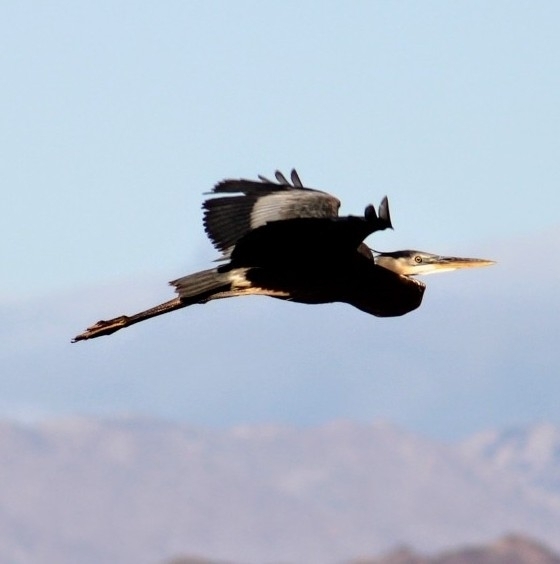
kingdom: Animalia
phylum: Chordata
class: Aves
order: Pelecaniformes
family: Ardeidae
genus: Ardea
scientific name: Ardea herodias
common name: Great blue heron
